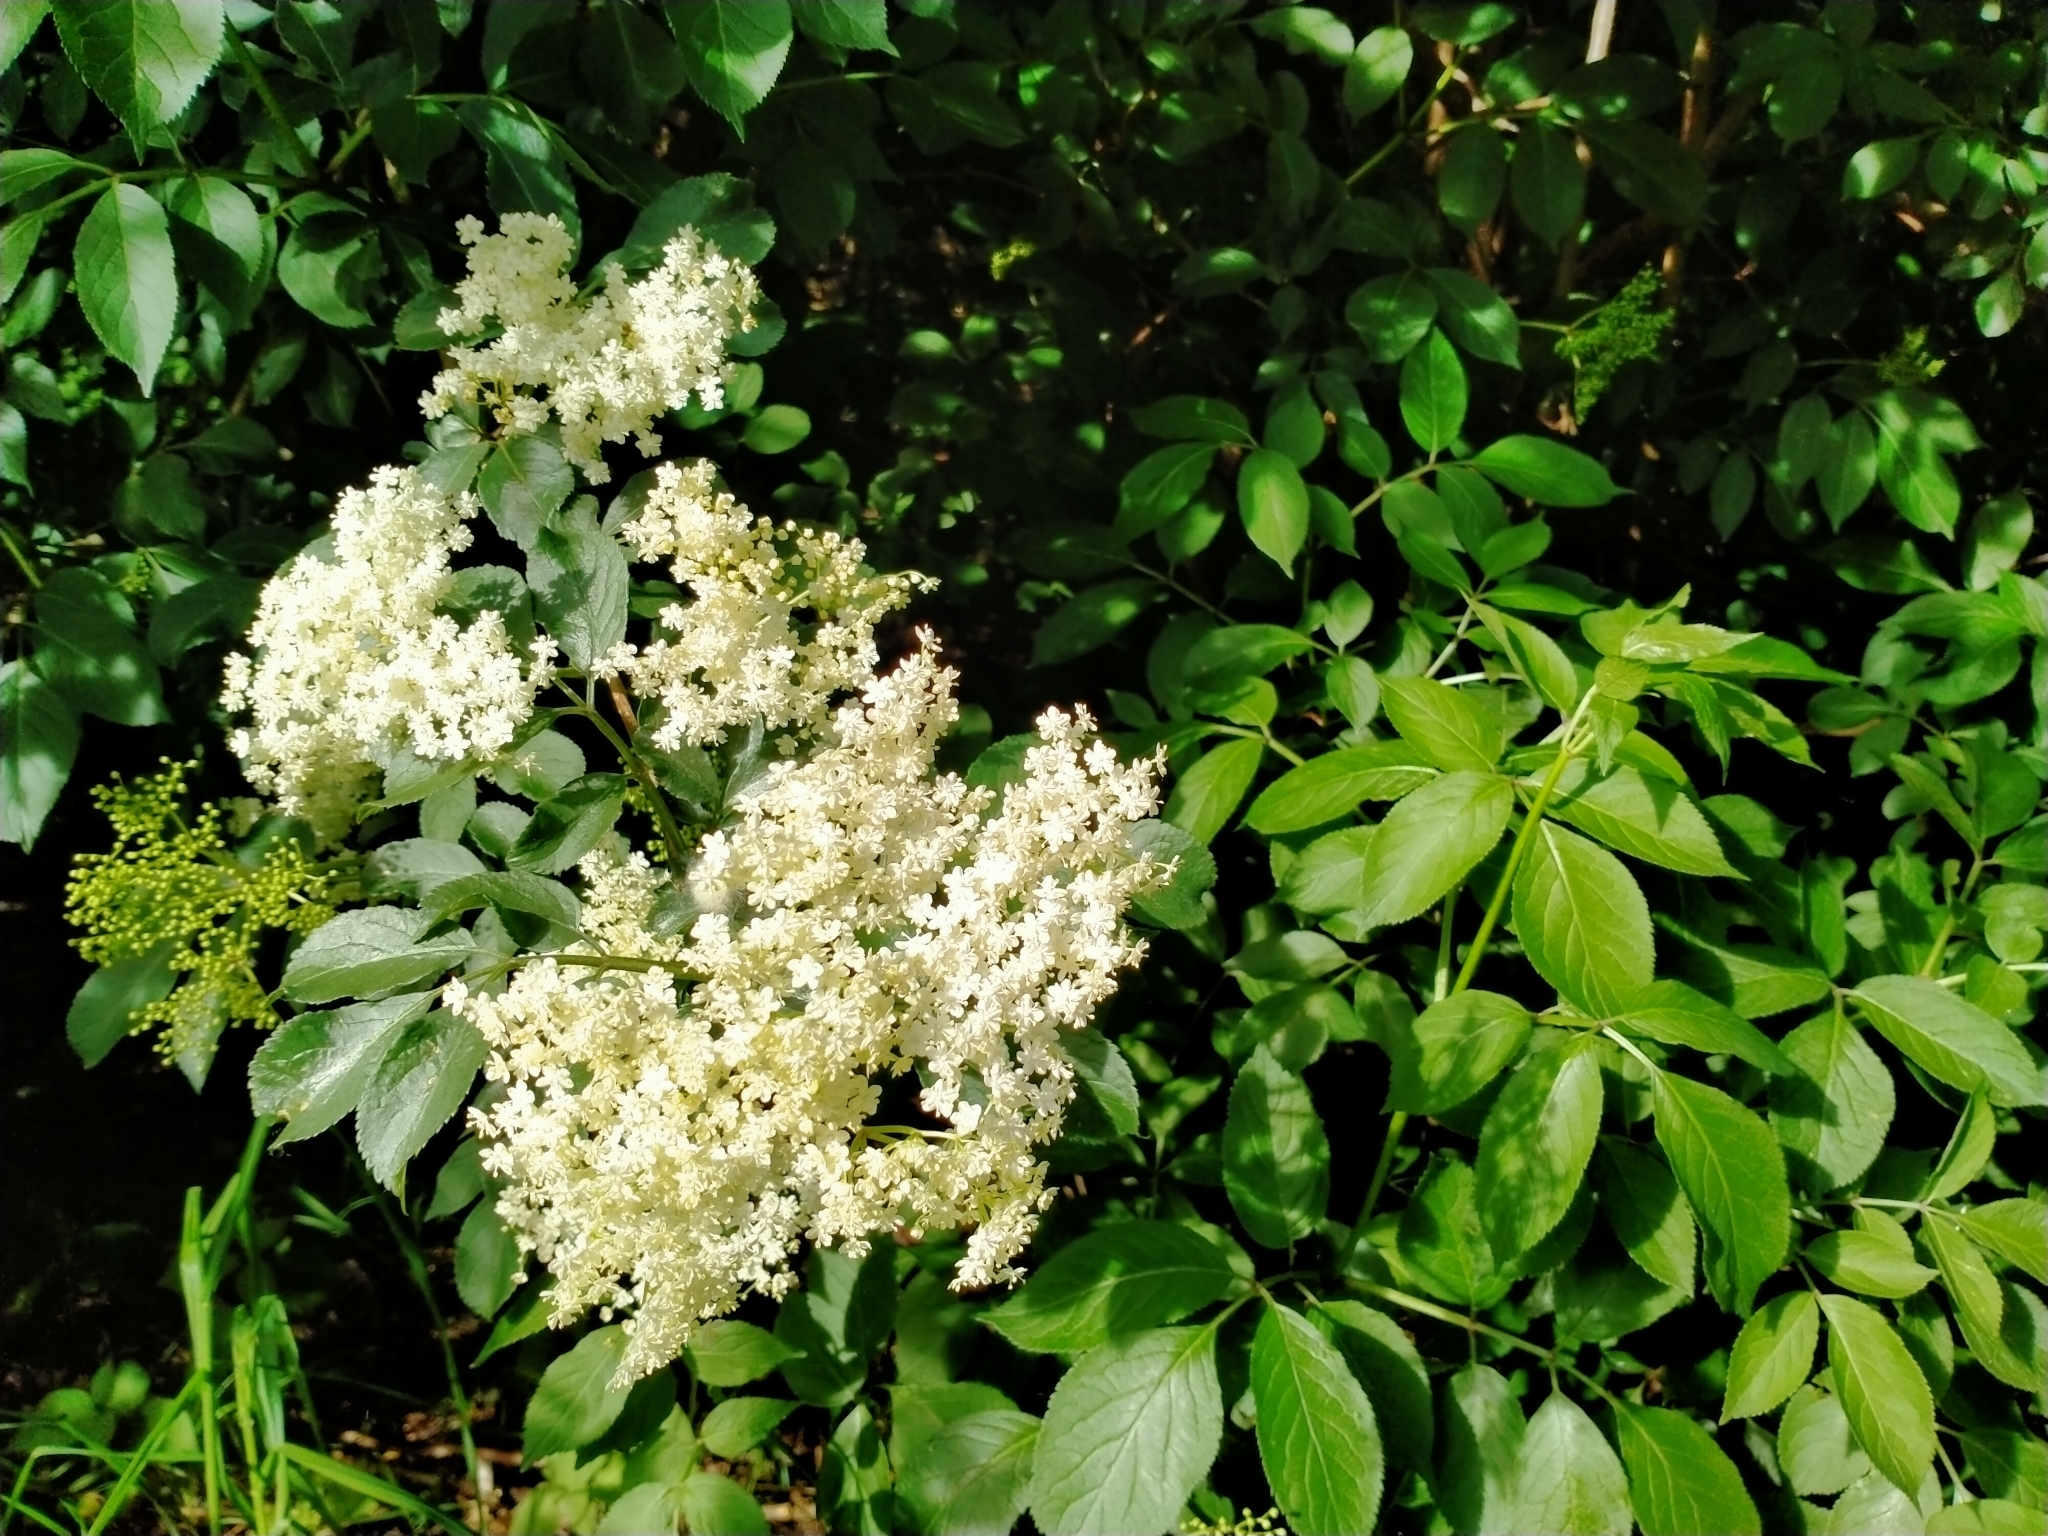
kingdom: Plantae
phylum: Tracheophyta
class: Magnoliopsida
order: Dipsacales
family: Viburnaceae
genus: Sambucus
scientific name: Sambucus nigra
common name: Elder
